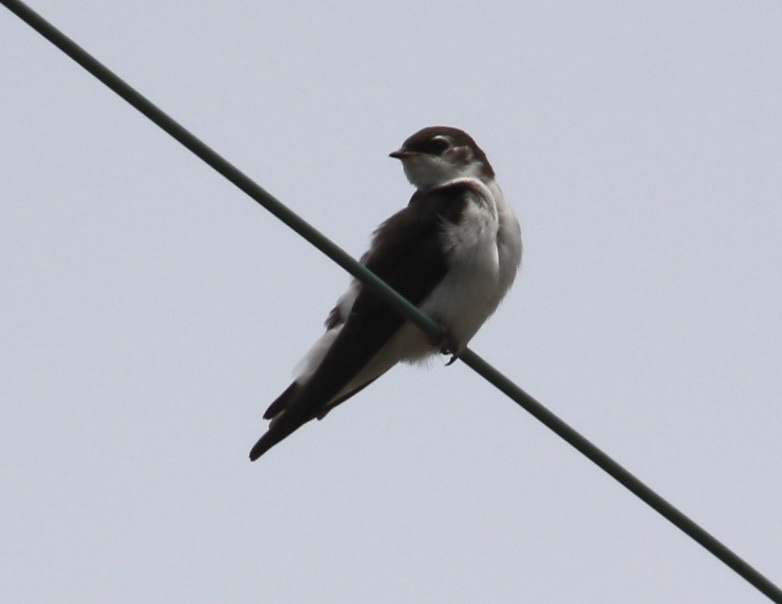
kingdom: Animalia
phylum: Chordata
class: Aves
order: Passeriformes
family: Hirundinidae
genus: Tachycineta
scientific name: Tachycineta thalassina
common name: Violet-green swallow
